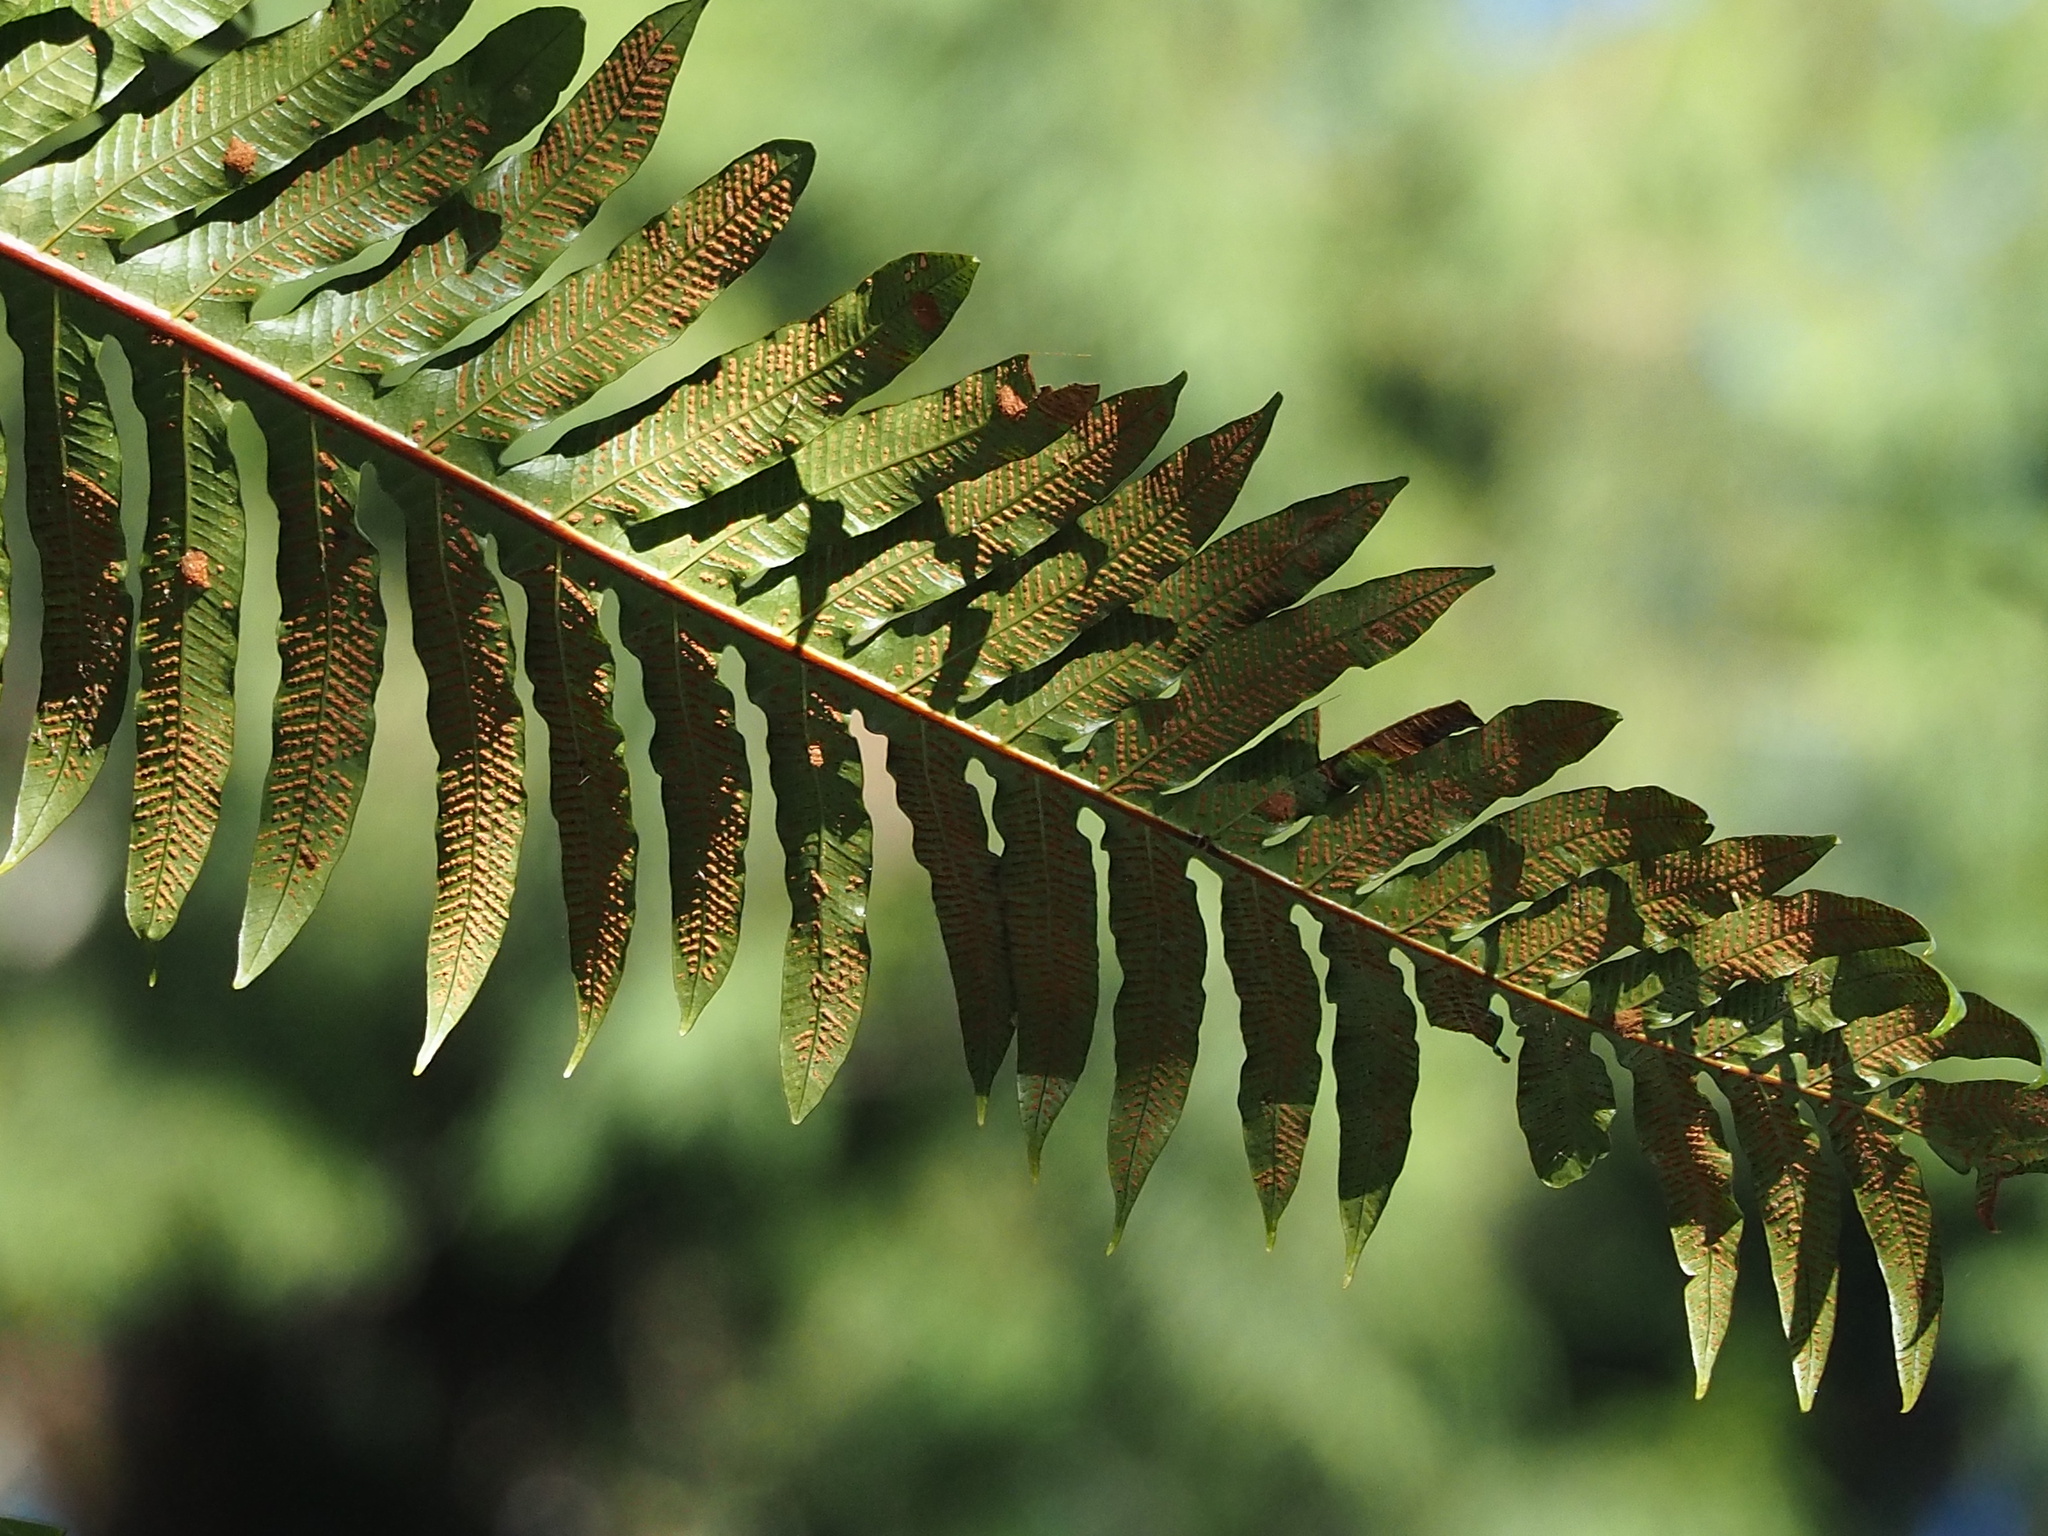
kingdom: Plantae
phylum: Tracheophyta
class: Polypodiopsida
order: Polypodiales
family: Polypodiaceae
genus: Drynaria
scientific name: Drynaria coronans
